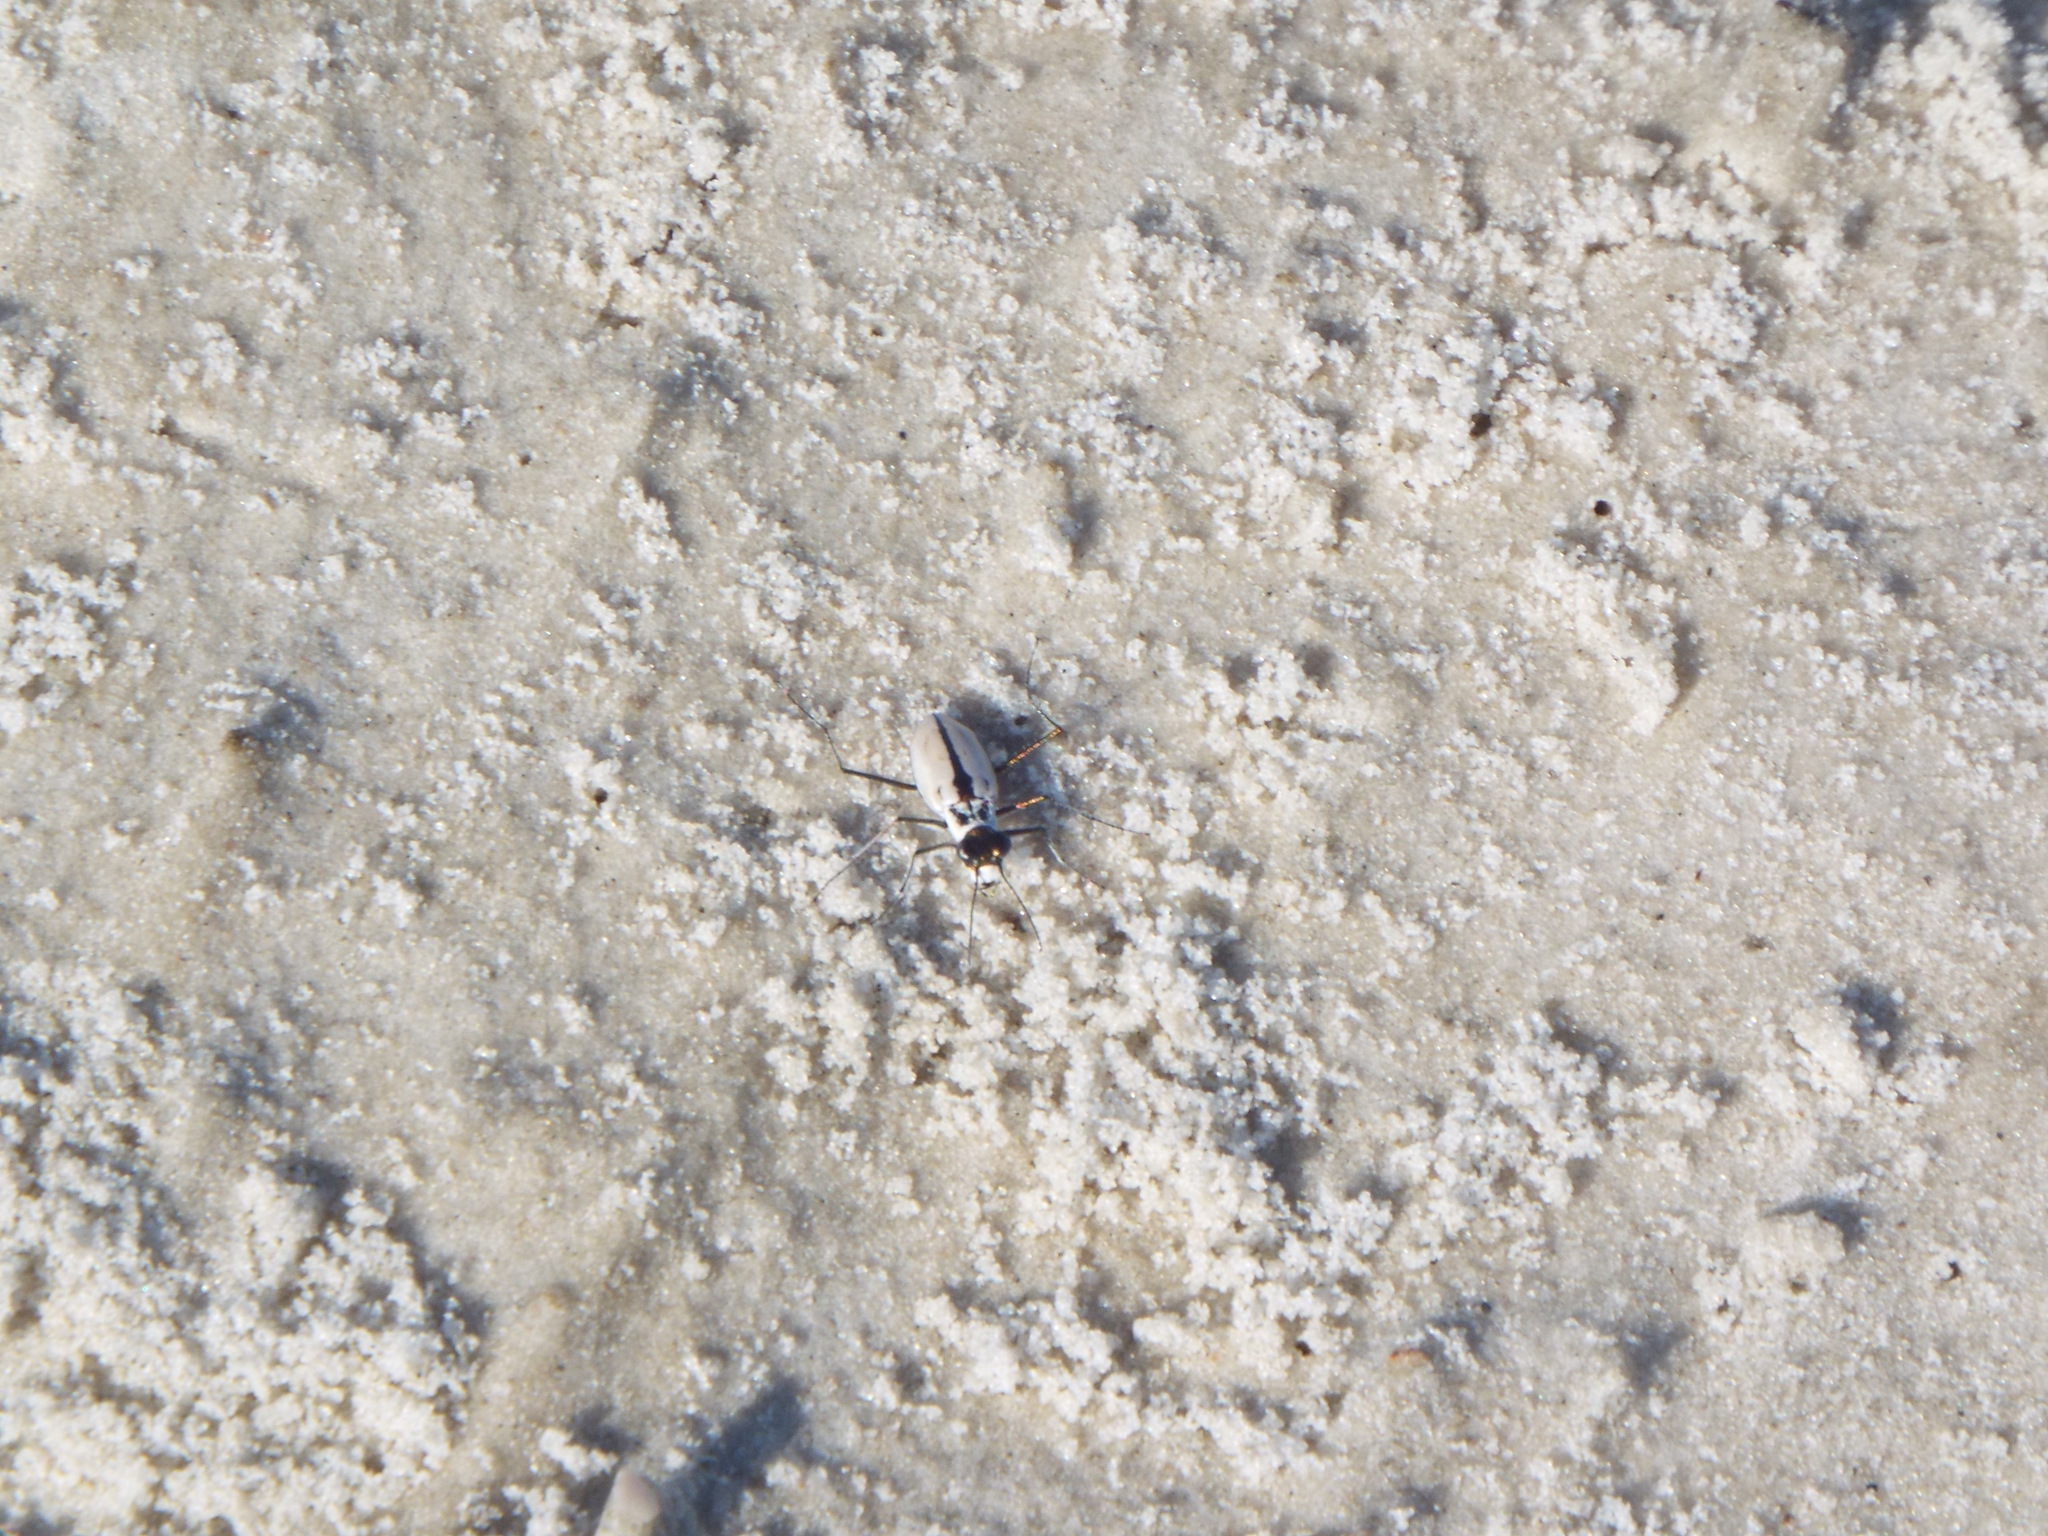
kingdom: Animalia
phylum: Arthropoda
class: Insecta
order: Coleoptera
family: Carabidae
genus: Habroscelimorpha
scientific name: Habroscelimorpha dorsalis
